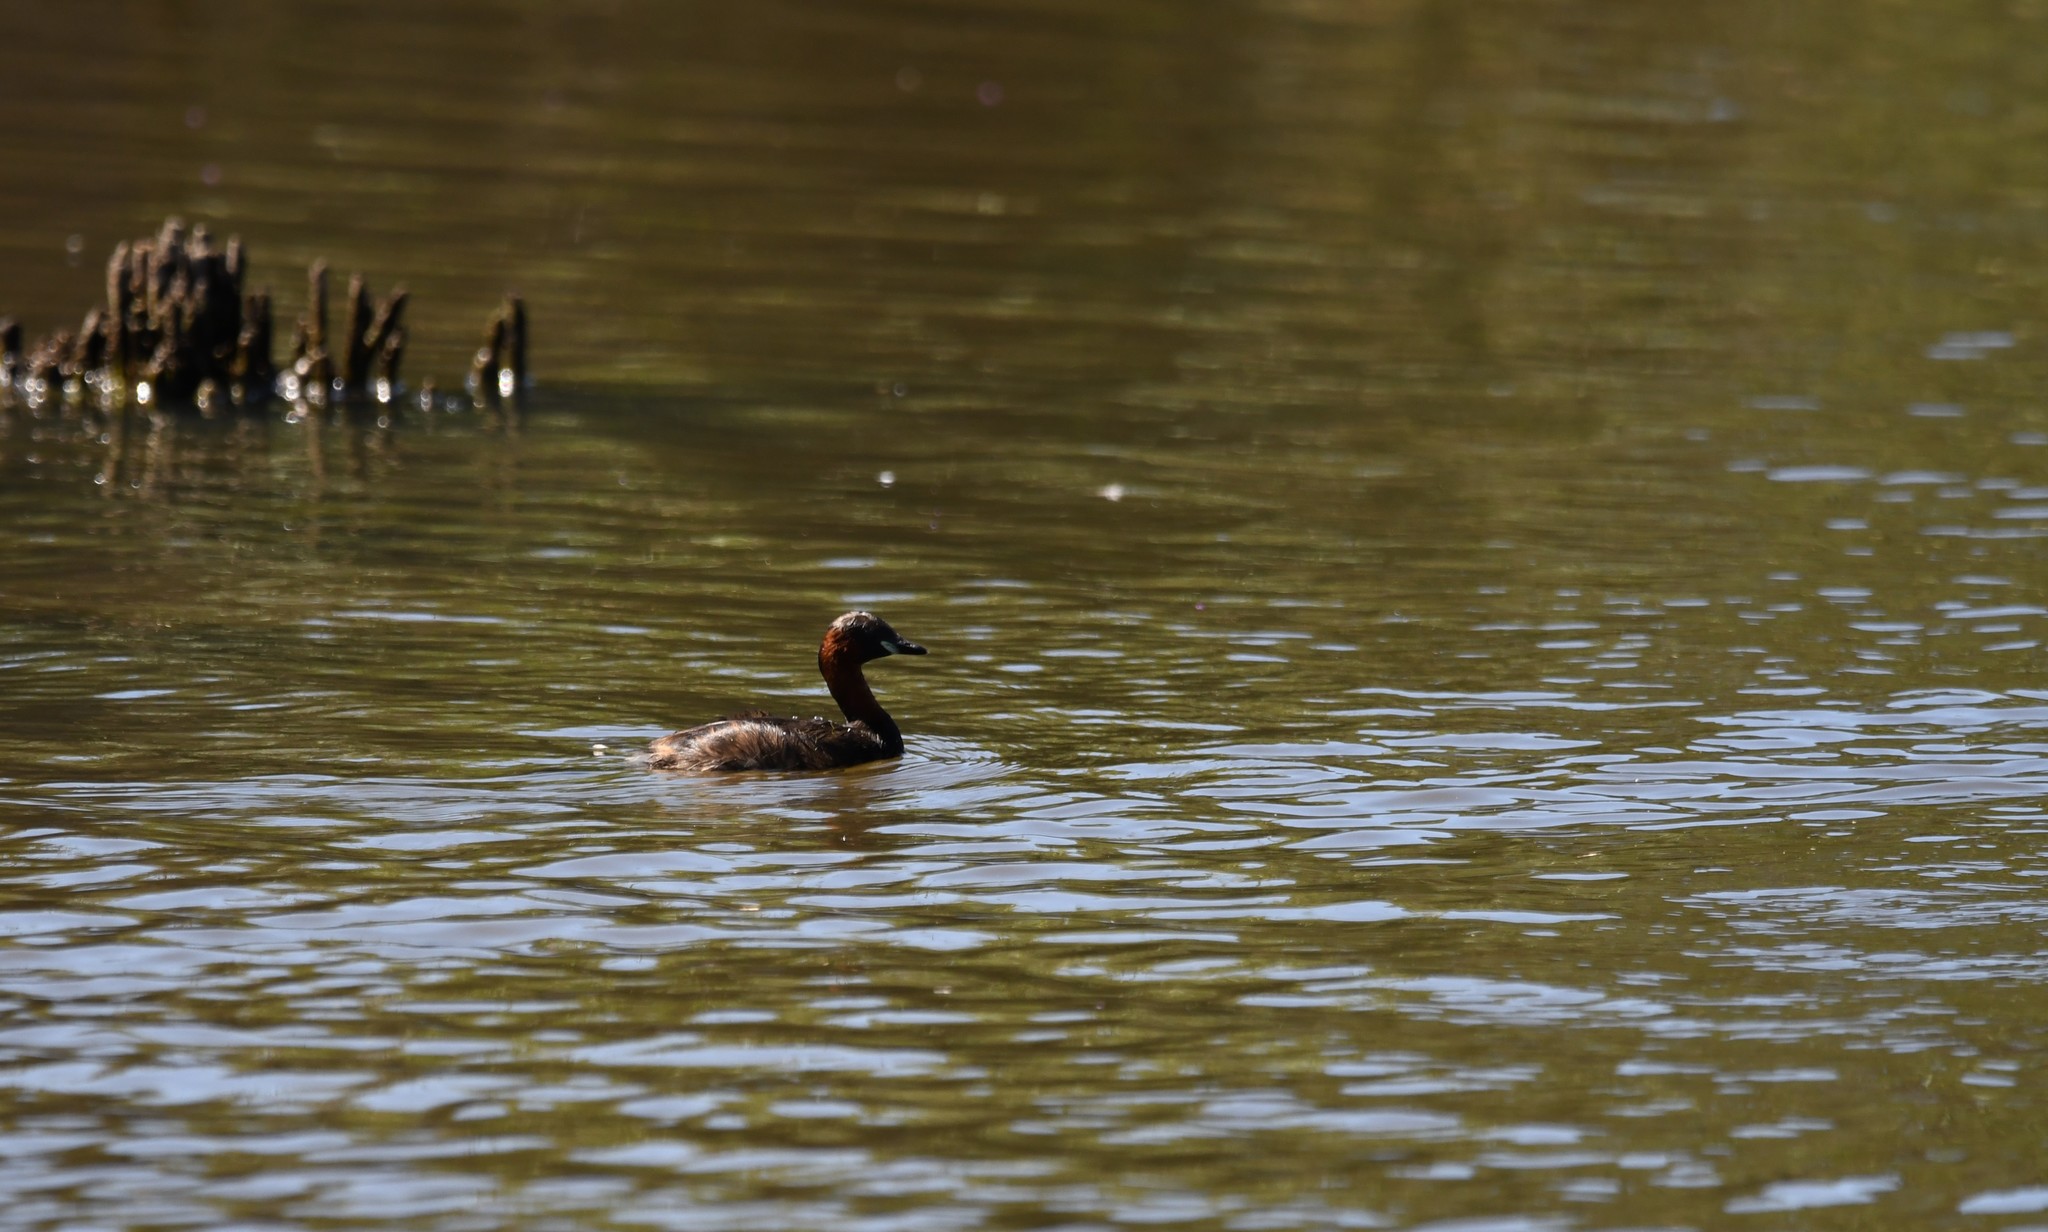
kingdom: Animalia
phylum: Chordata
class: Aves
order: Podicipediformes
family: Podicipedidae
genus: Tachybaptus
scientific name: Tachybaptus ruficollis
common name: Little grebe
